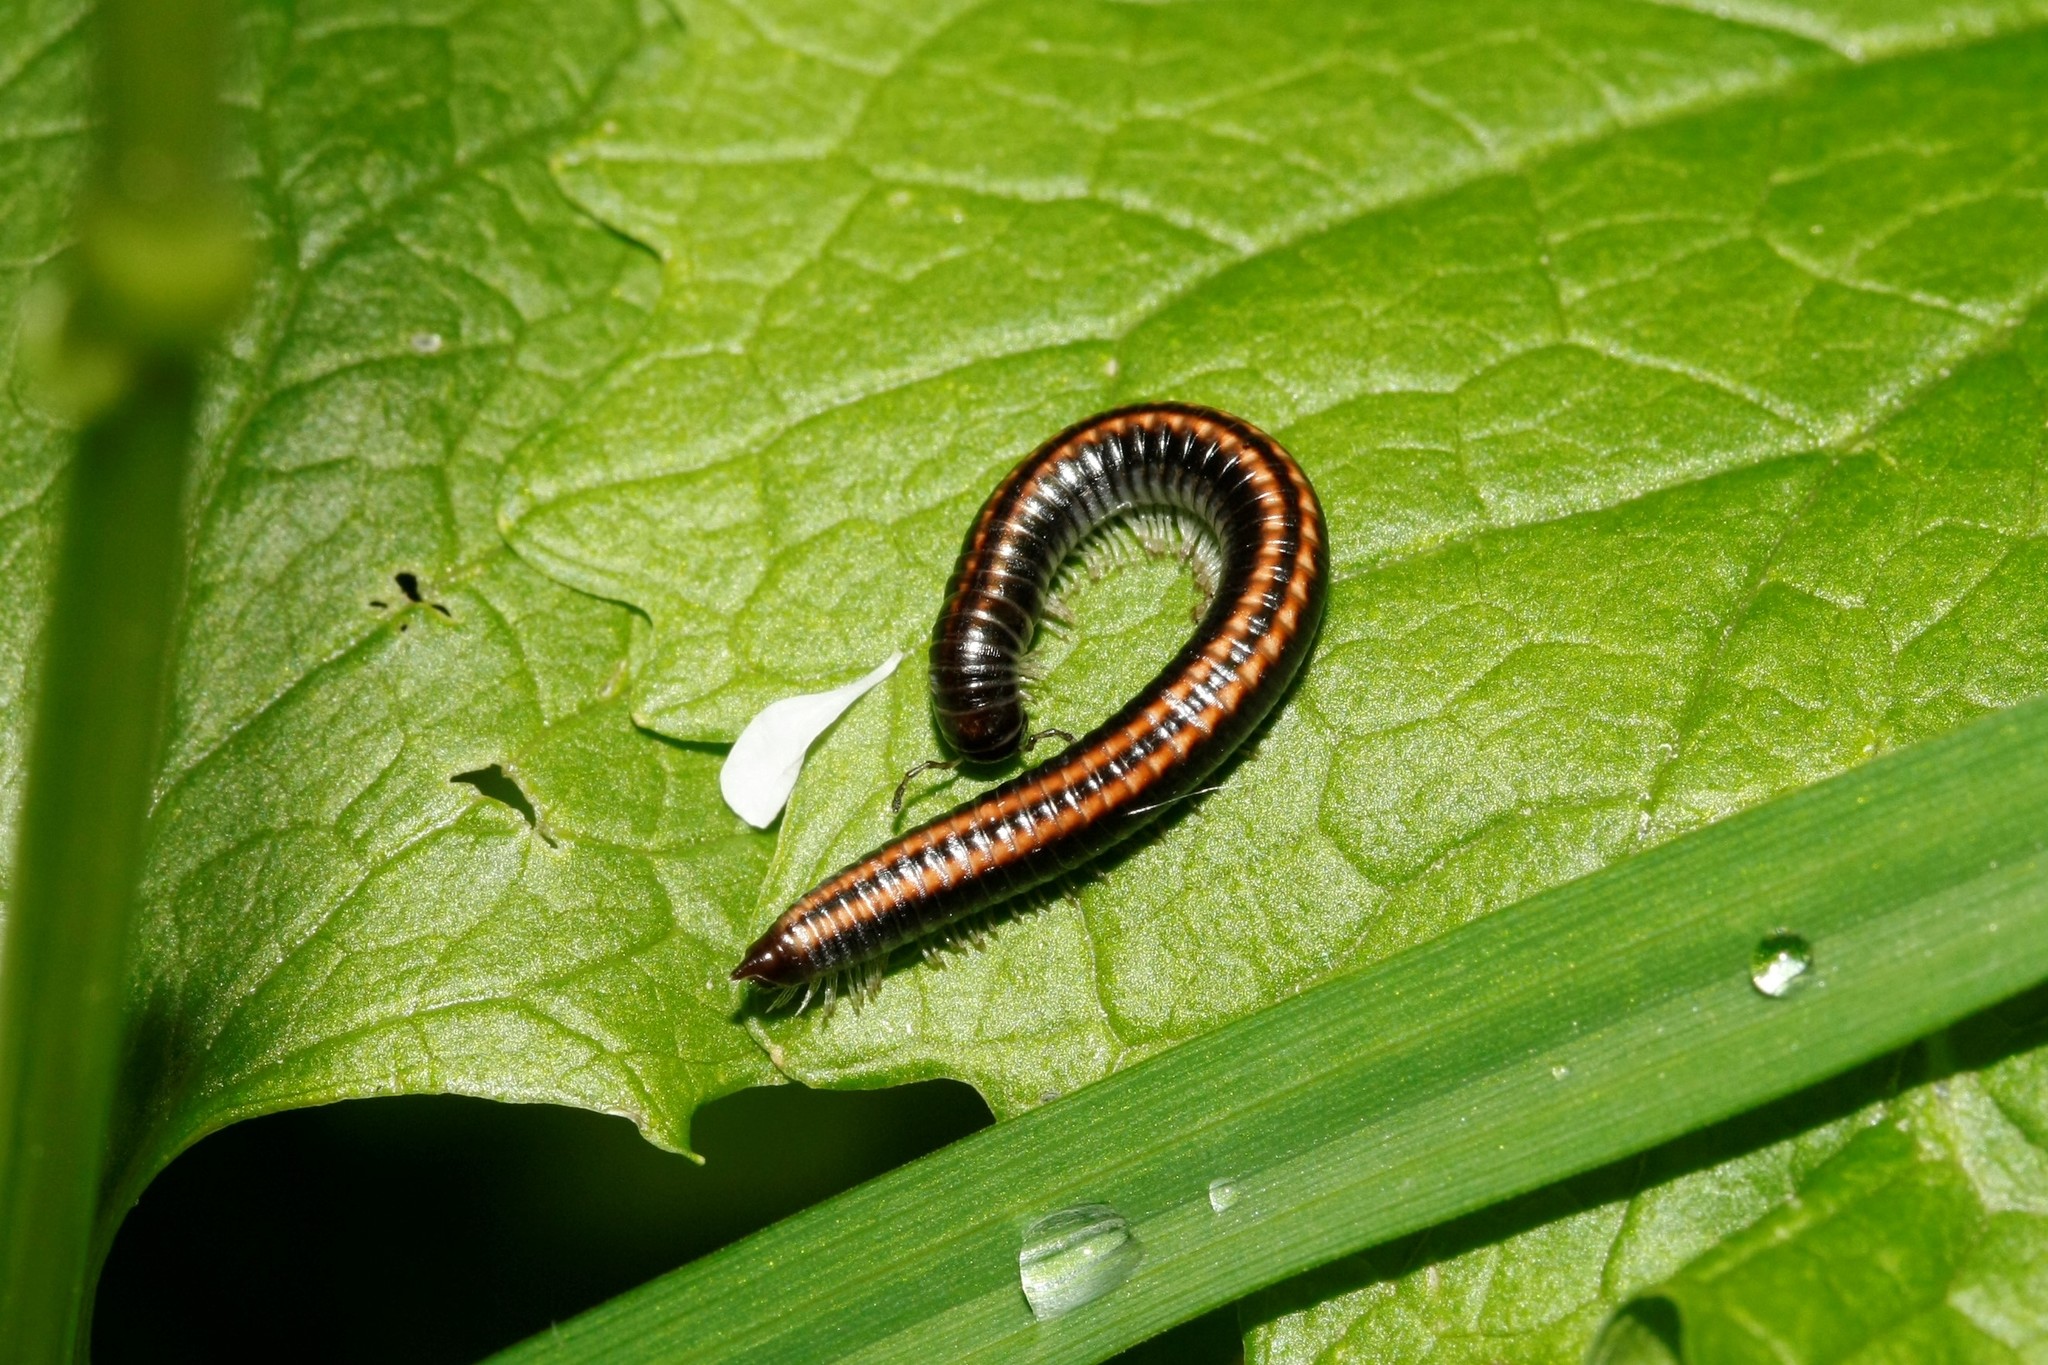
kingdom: Animalia
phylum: Arthropoda
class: Diplopoda
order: Julida
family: Julidae
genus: Ommatoiulus
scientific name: Ommatoiulus sabulosus
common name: Striped millipede
